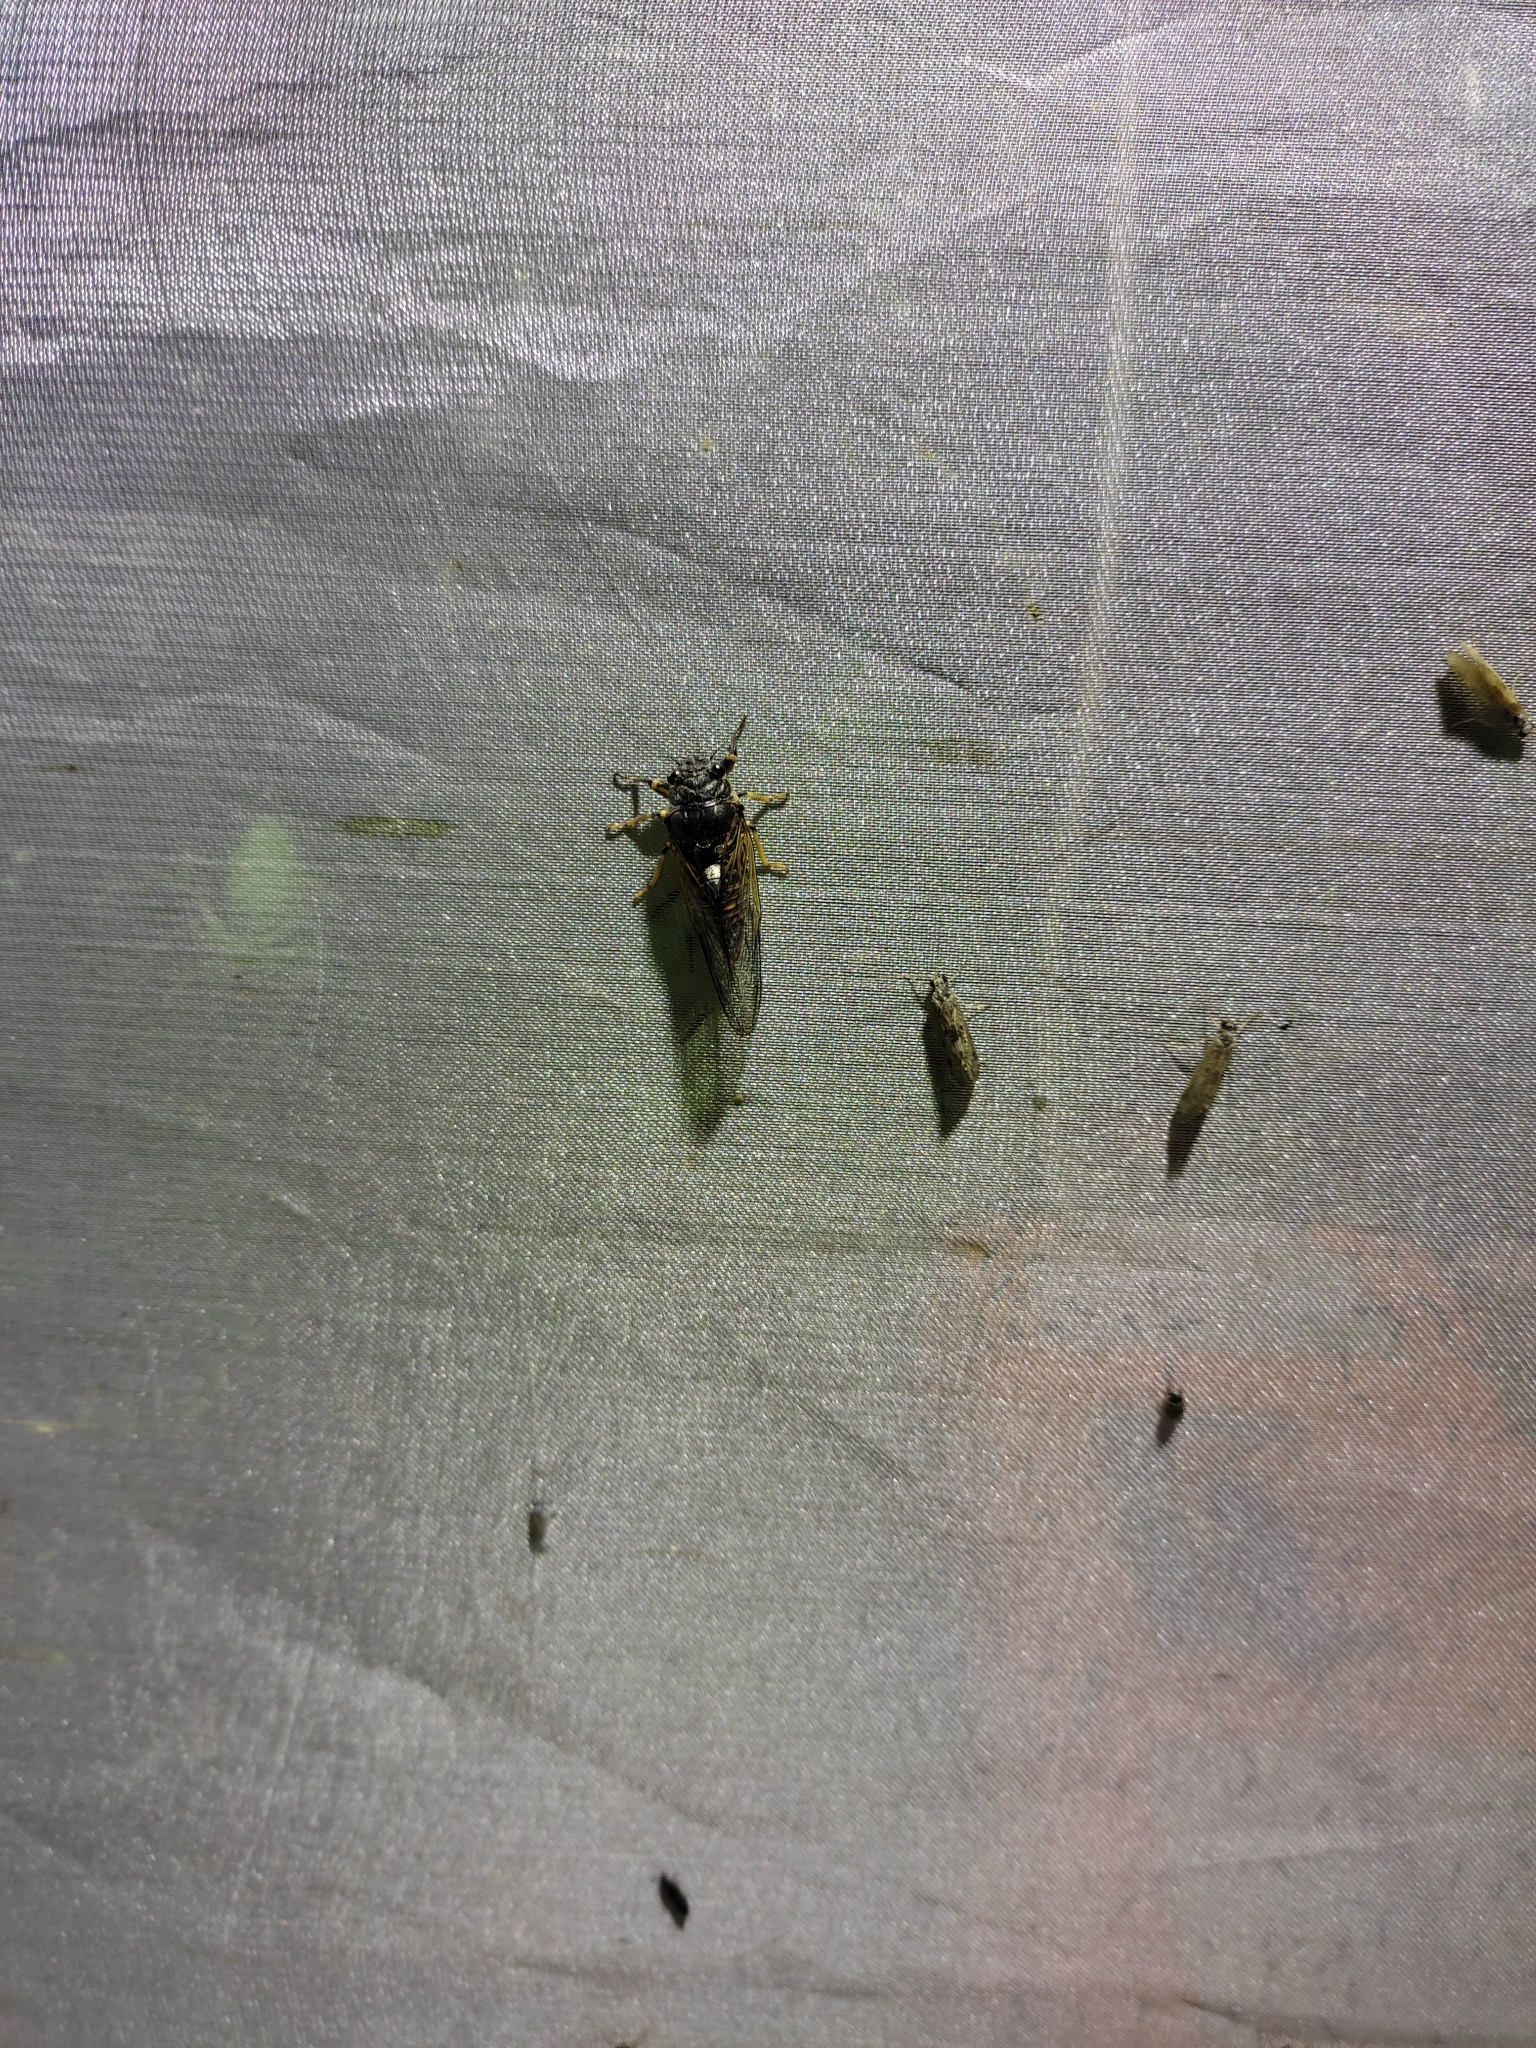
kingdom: Animalia
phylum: Arthropoda
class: Insecta
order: Hemiptera
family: Cicadidae
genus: Cicadetta
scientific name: Cicadetta concinna
